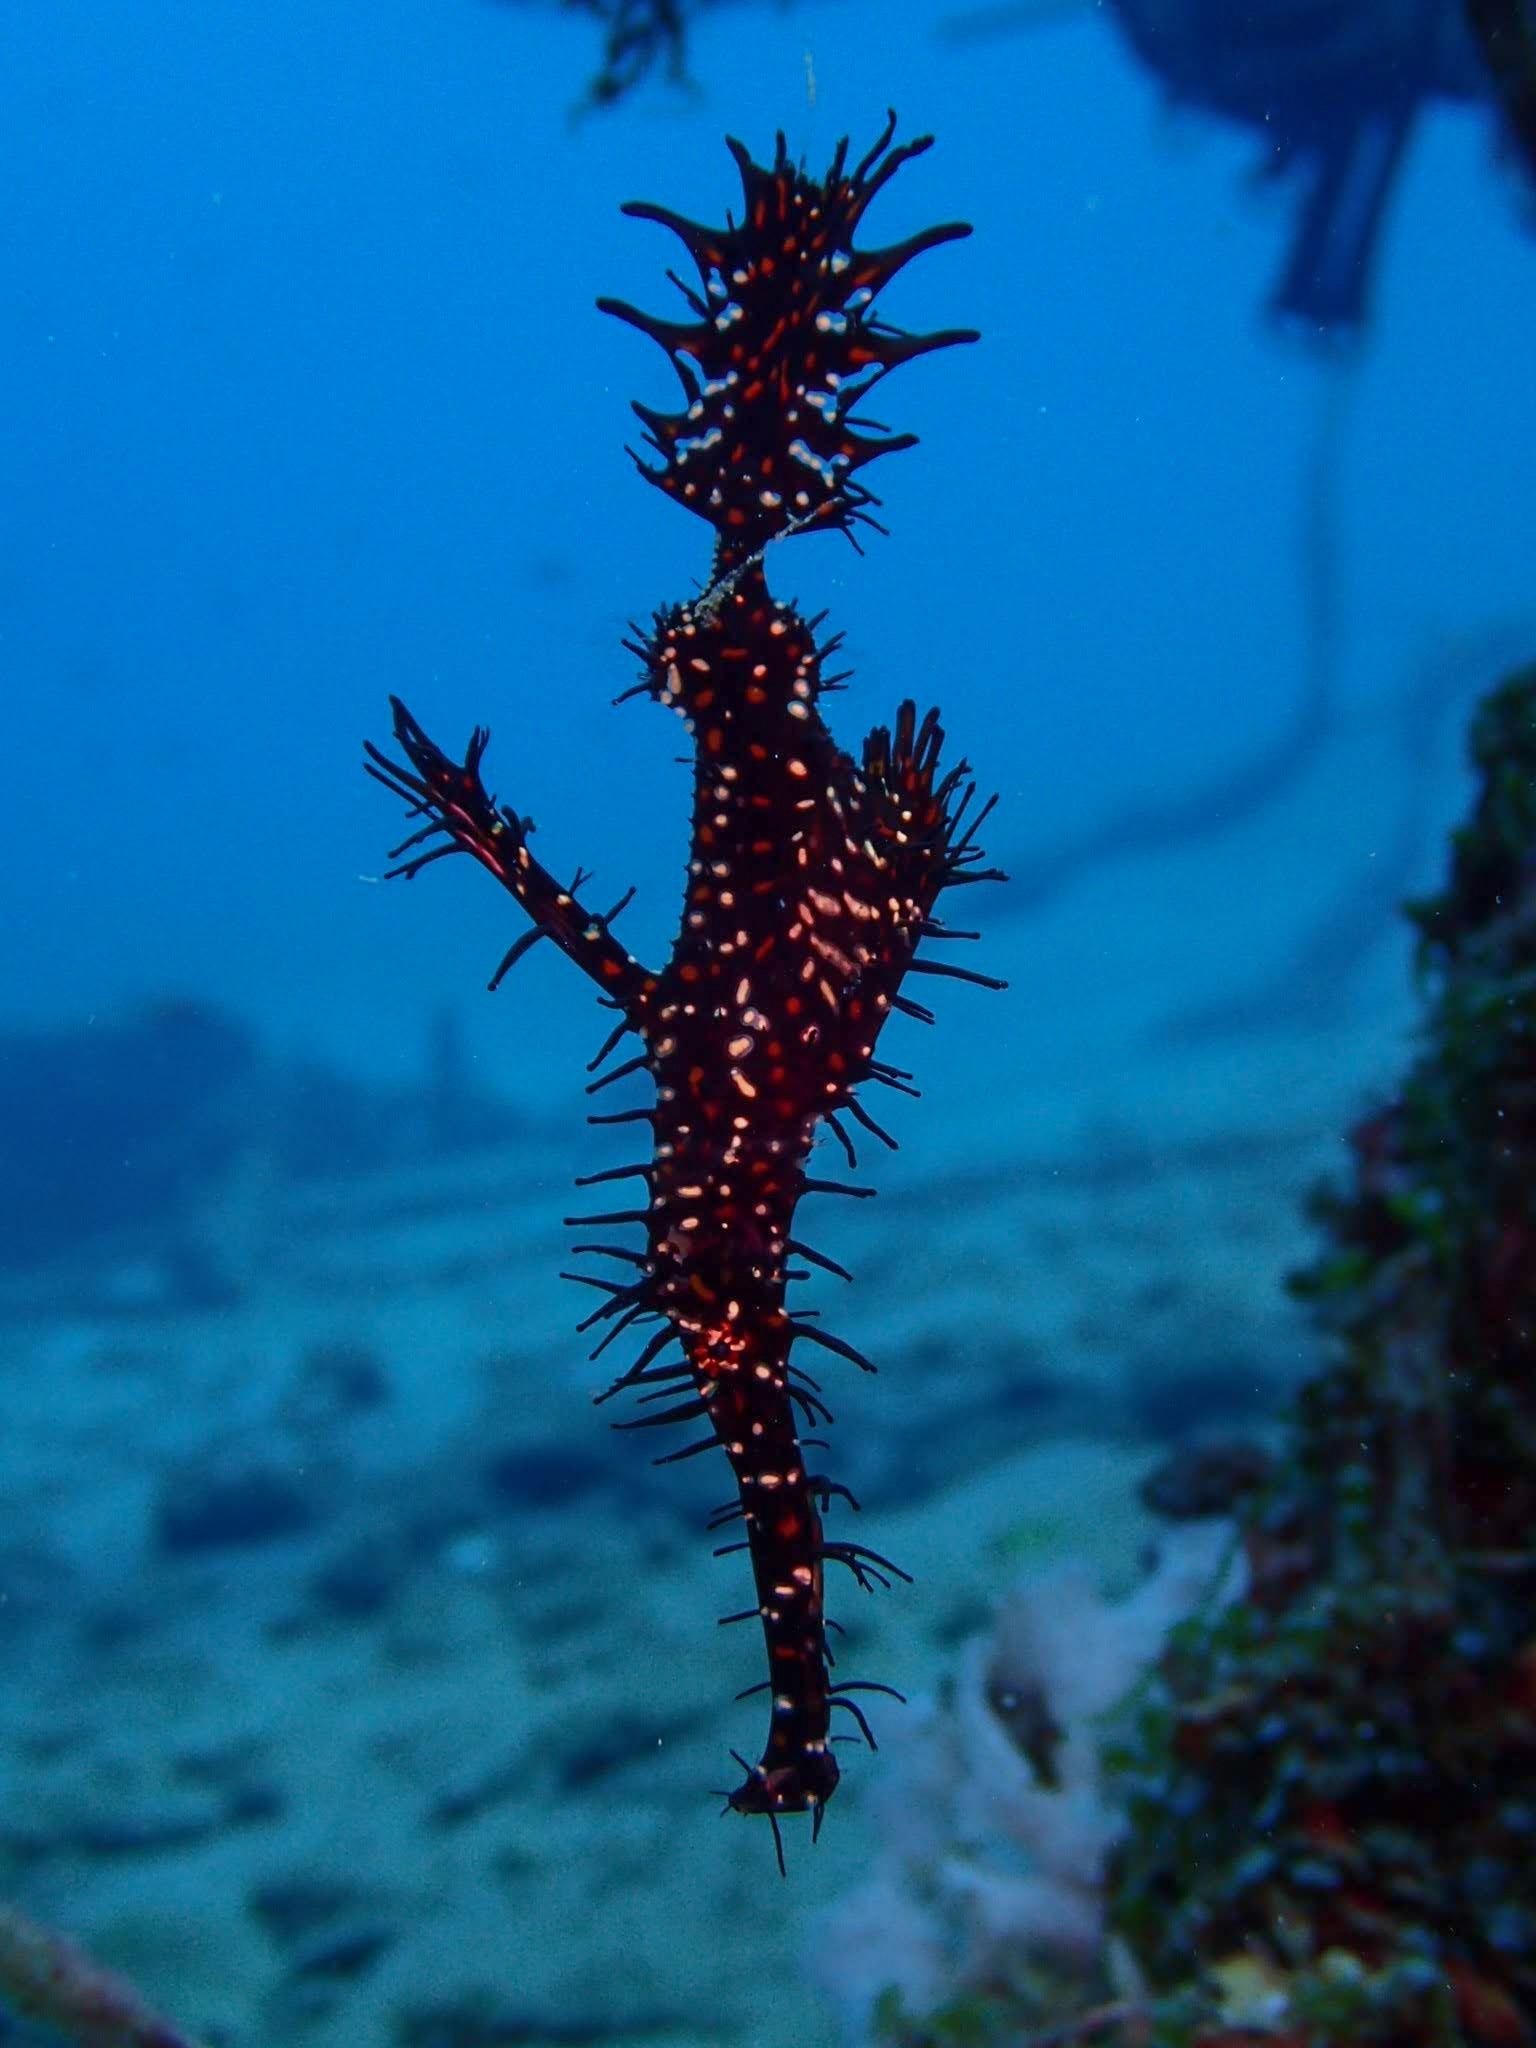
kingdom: Animalia
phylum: Chordata
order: Syngnathiformes
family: Solenostomidae
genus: Solenostomus
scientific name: Solenostomus paradoxus
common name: Ghost pipefish
